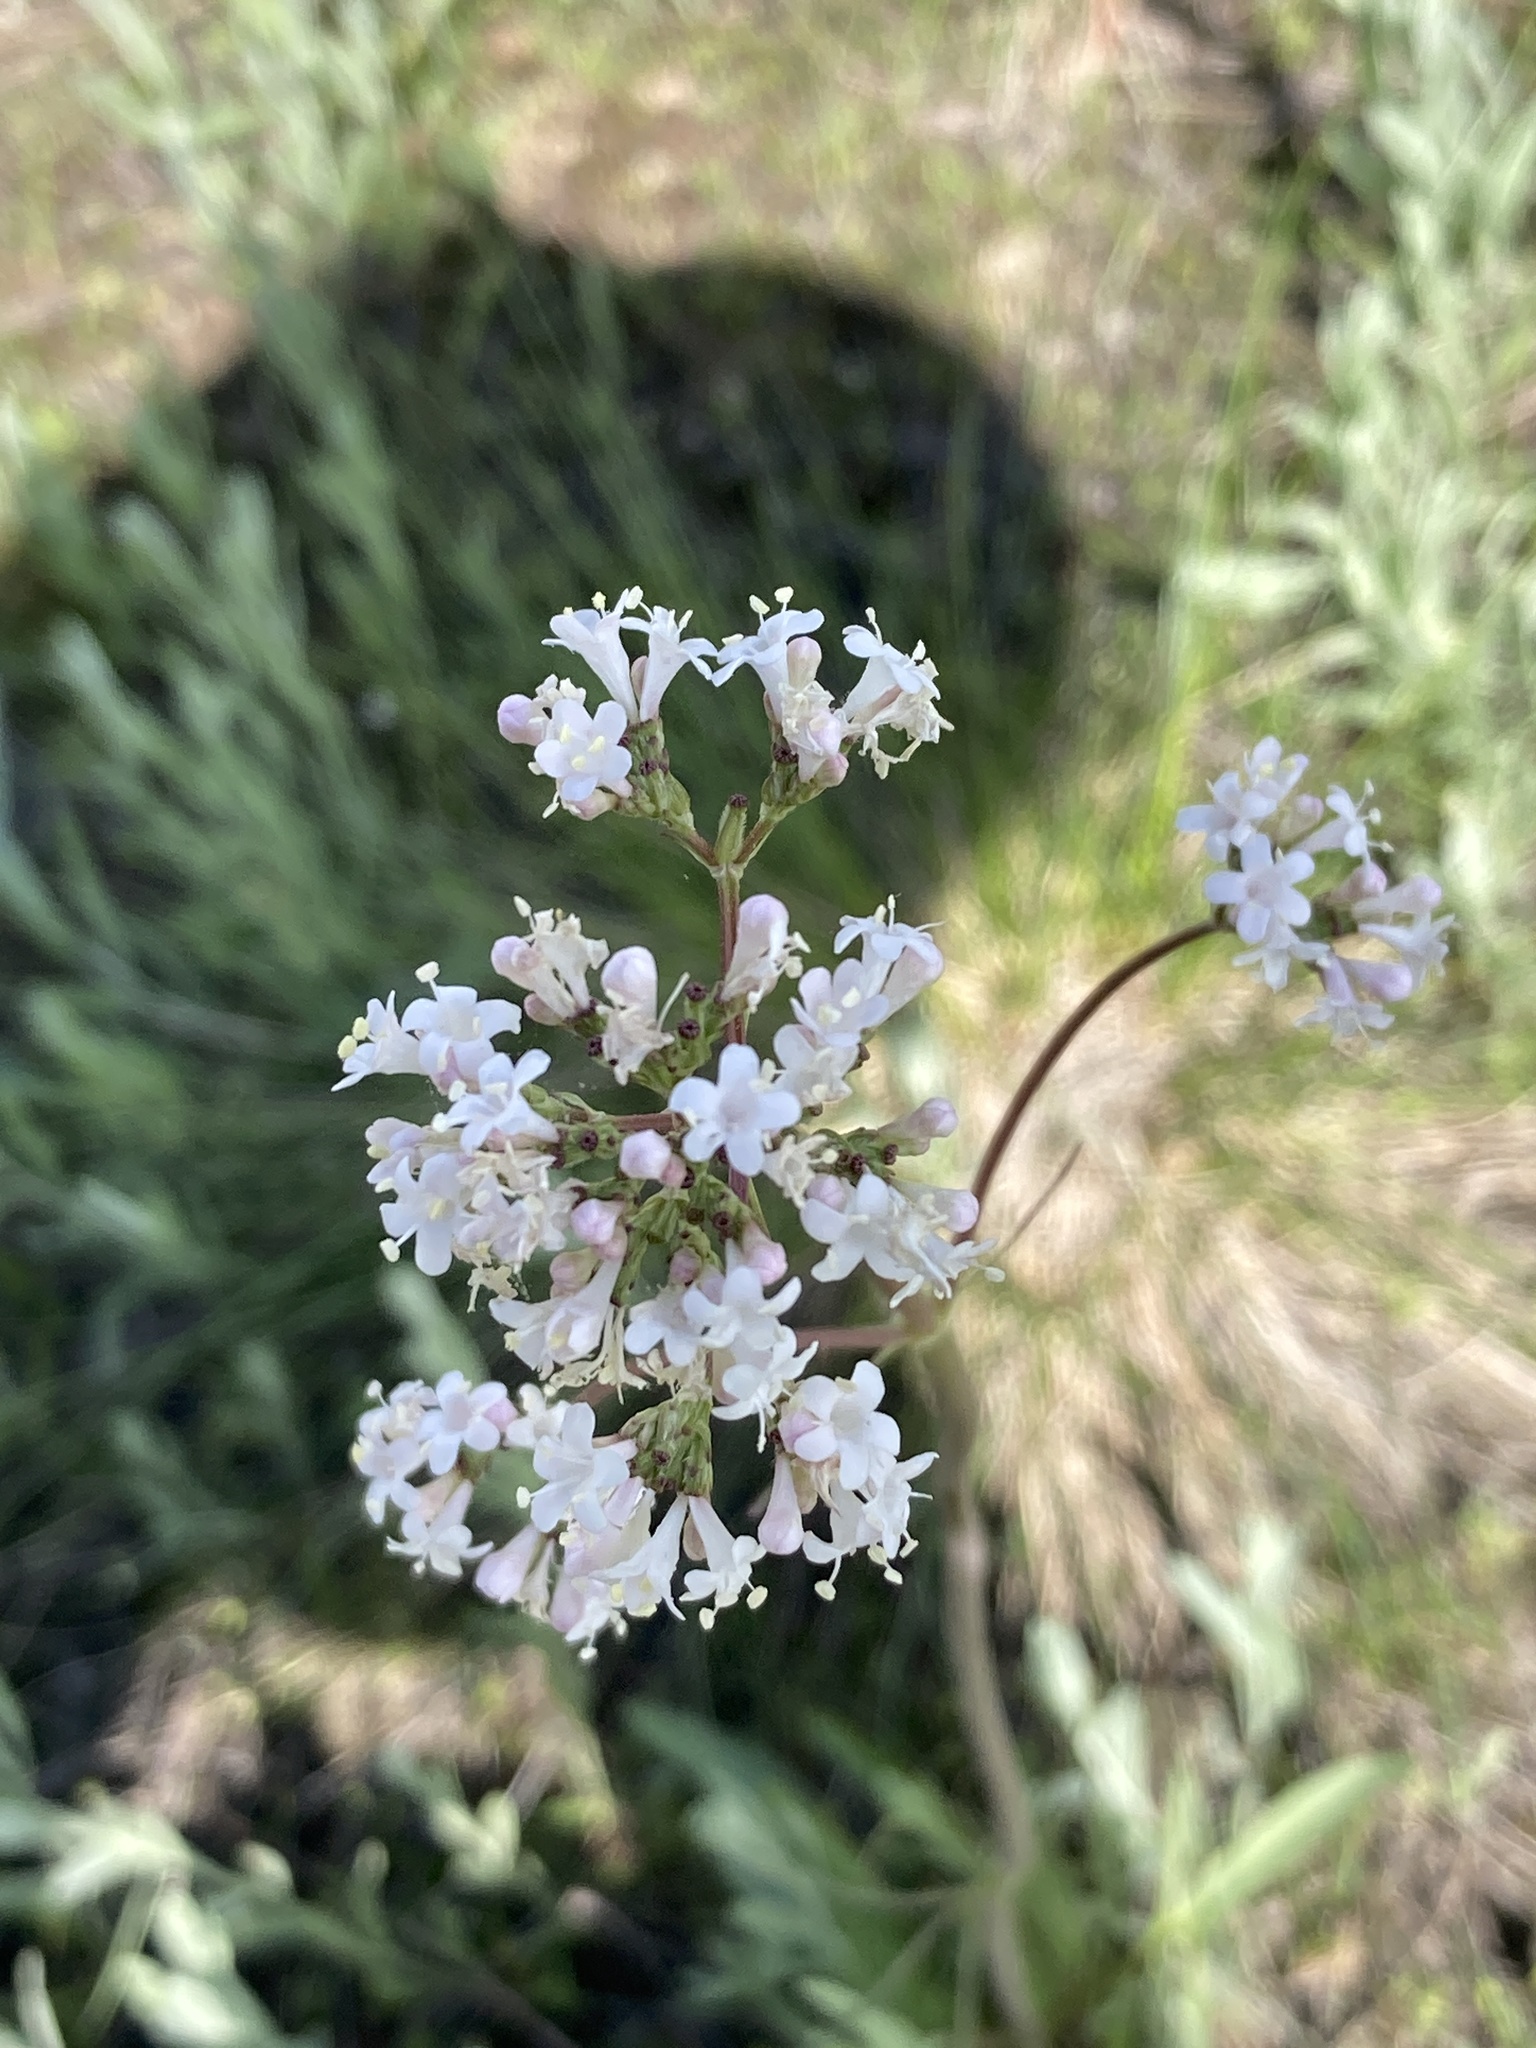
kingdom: Plantae
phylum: Tracheophyta
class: Magnoliopsida
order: Dipsacales
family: Caprifoliaceae
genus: Valeriana
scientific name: Valeriana tuberosa
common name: Tuberous valerian
